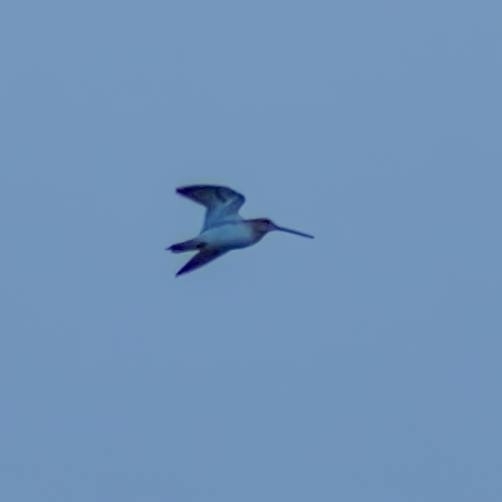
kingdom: Animalia
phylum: Chordata
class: Aves
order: Charadriiformes
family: Scolopacidae
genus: Gallinago
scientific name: Gallinago gallinago
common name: Common snipe
